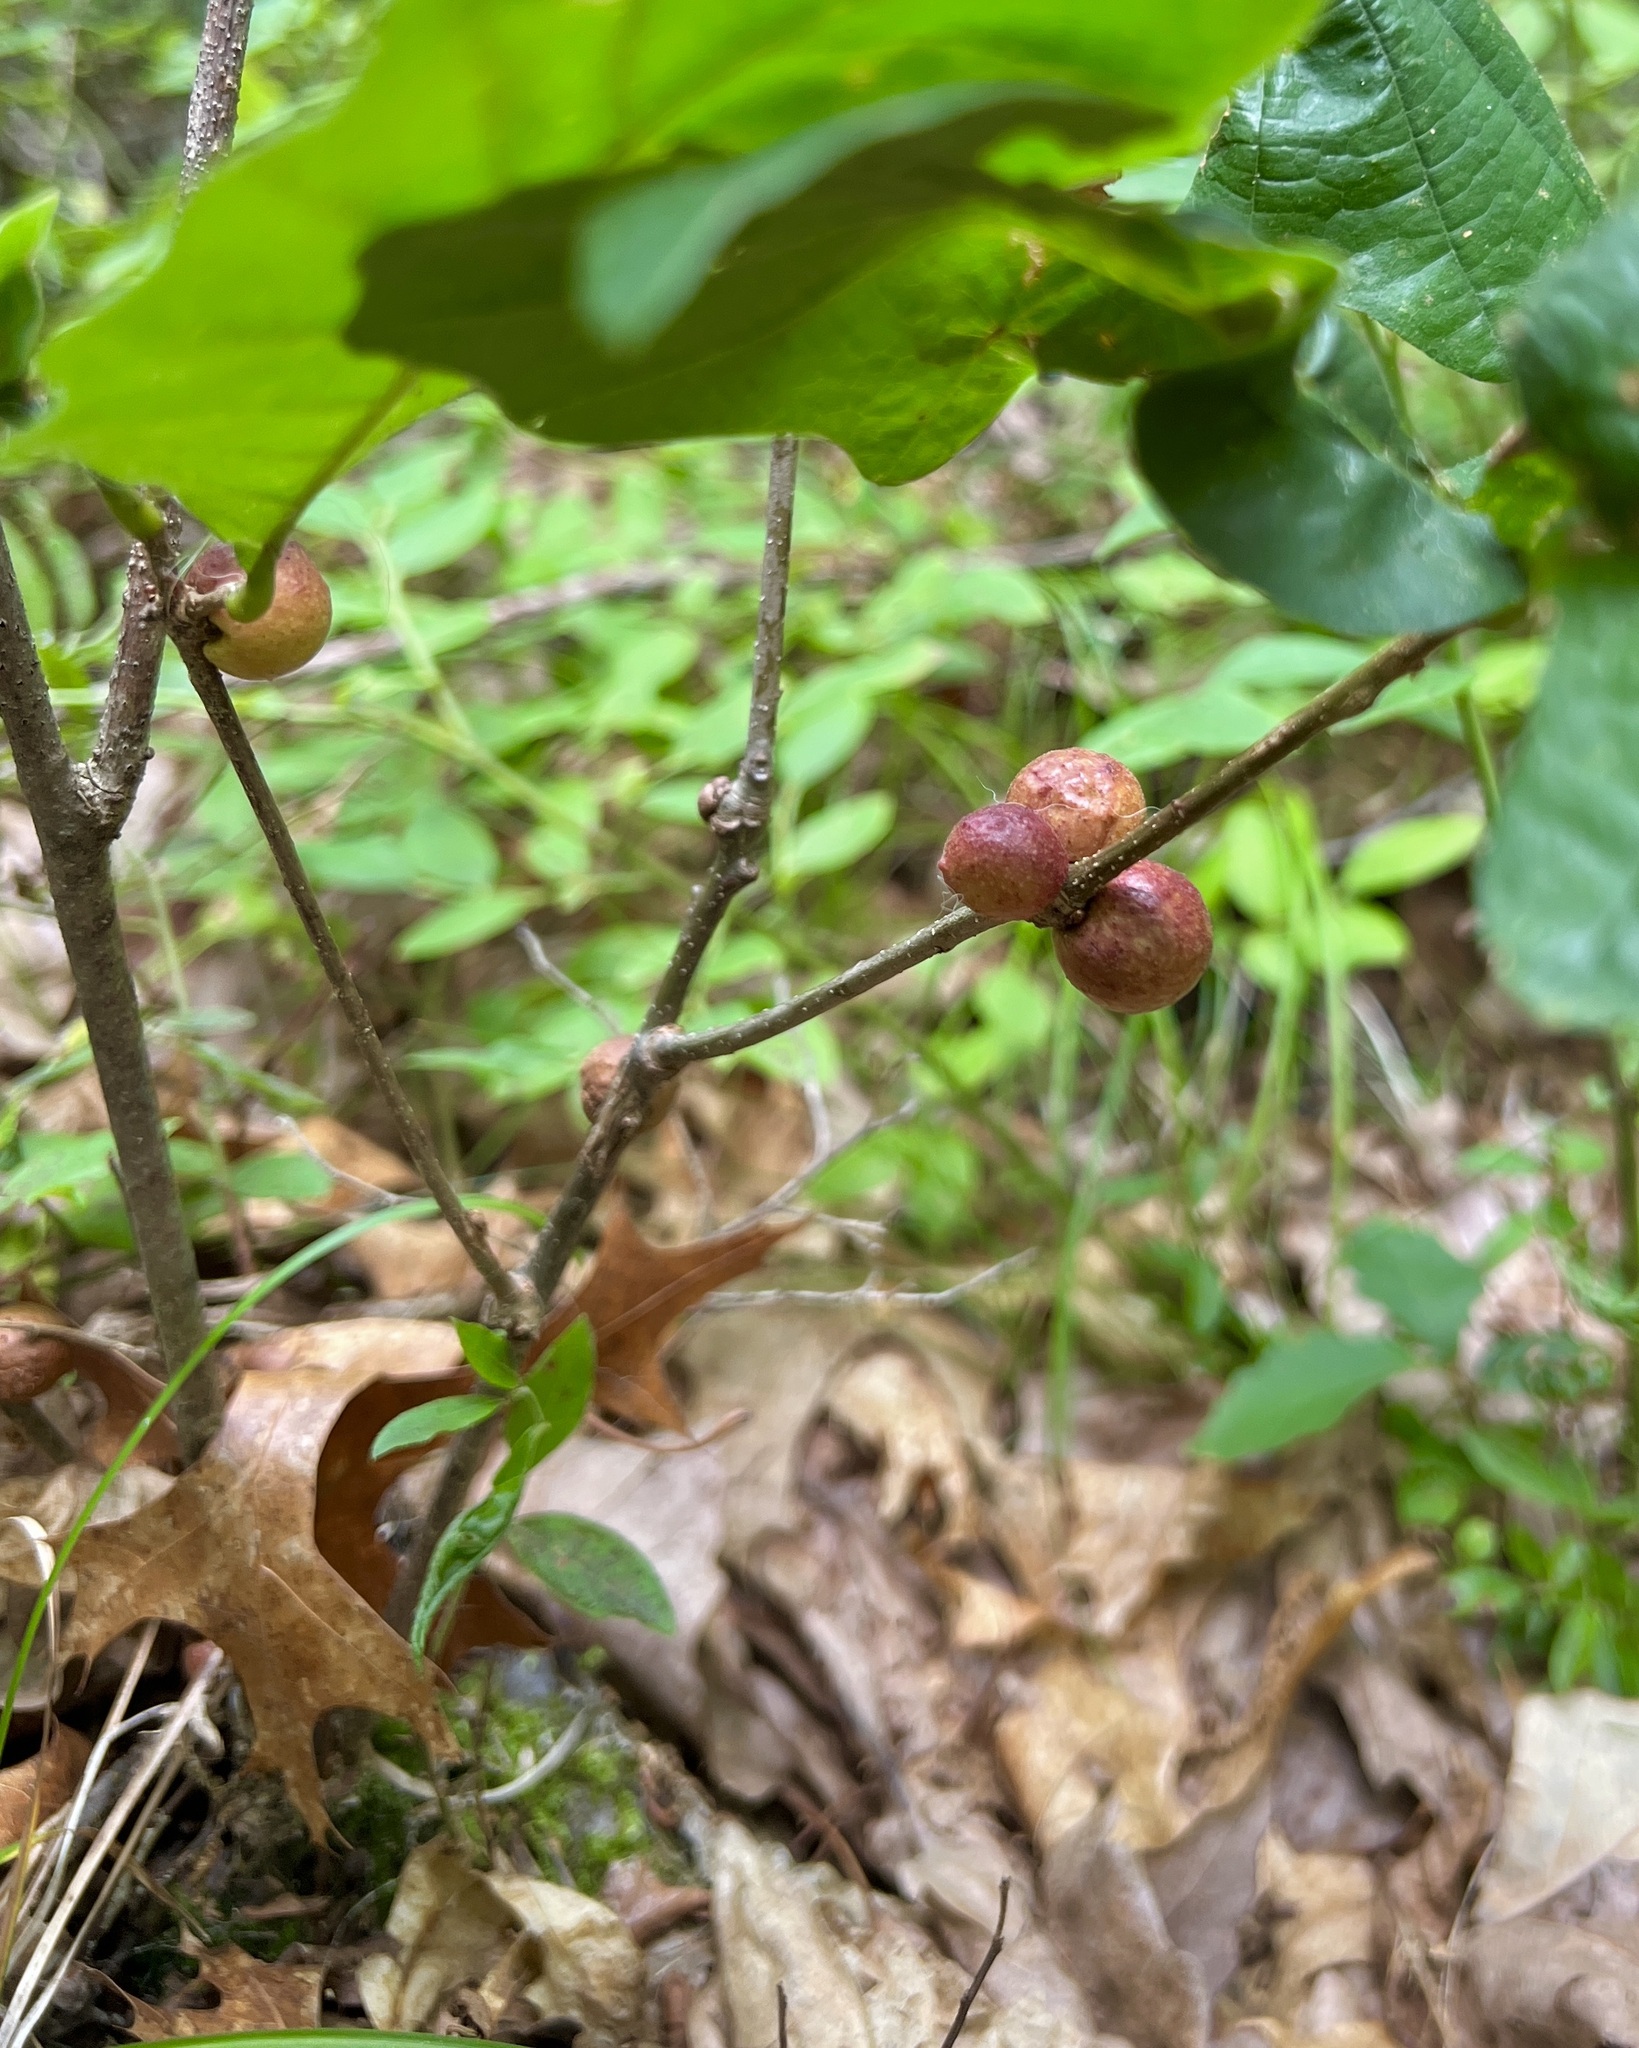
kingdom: Animalia
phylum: Arthropoda
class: Insecta
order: Hymenoptera
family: Cynipidae
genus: Disholcaspis
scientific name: Disholcaspis quercusglobulus
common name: Round bullet gall wasp
